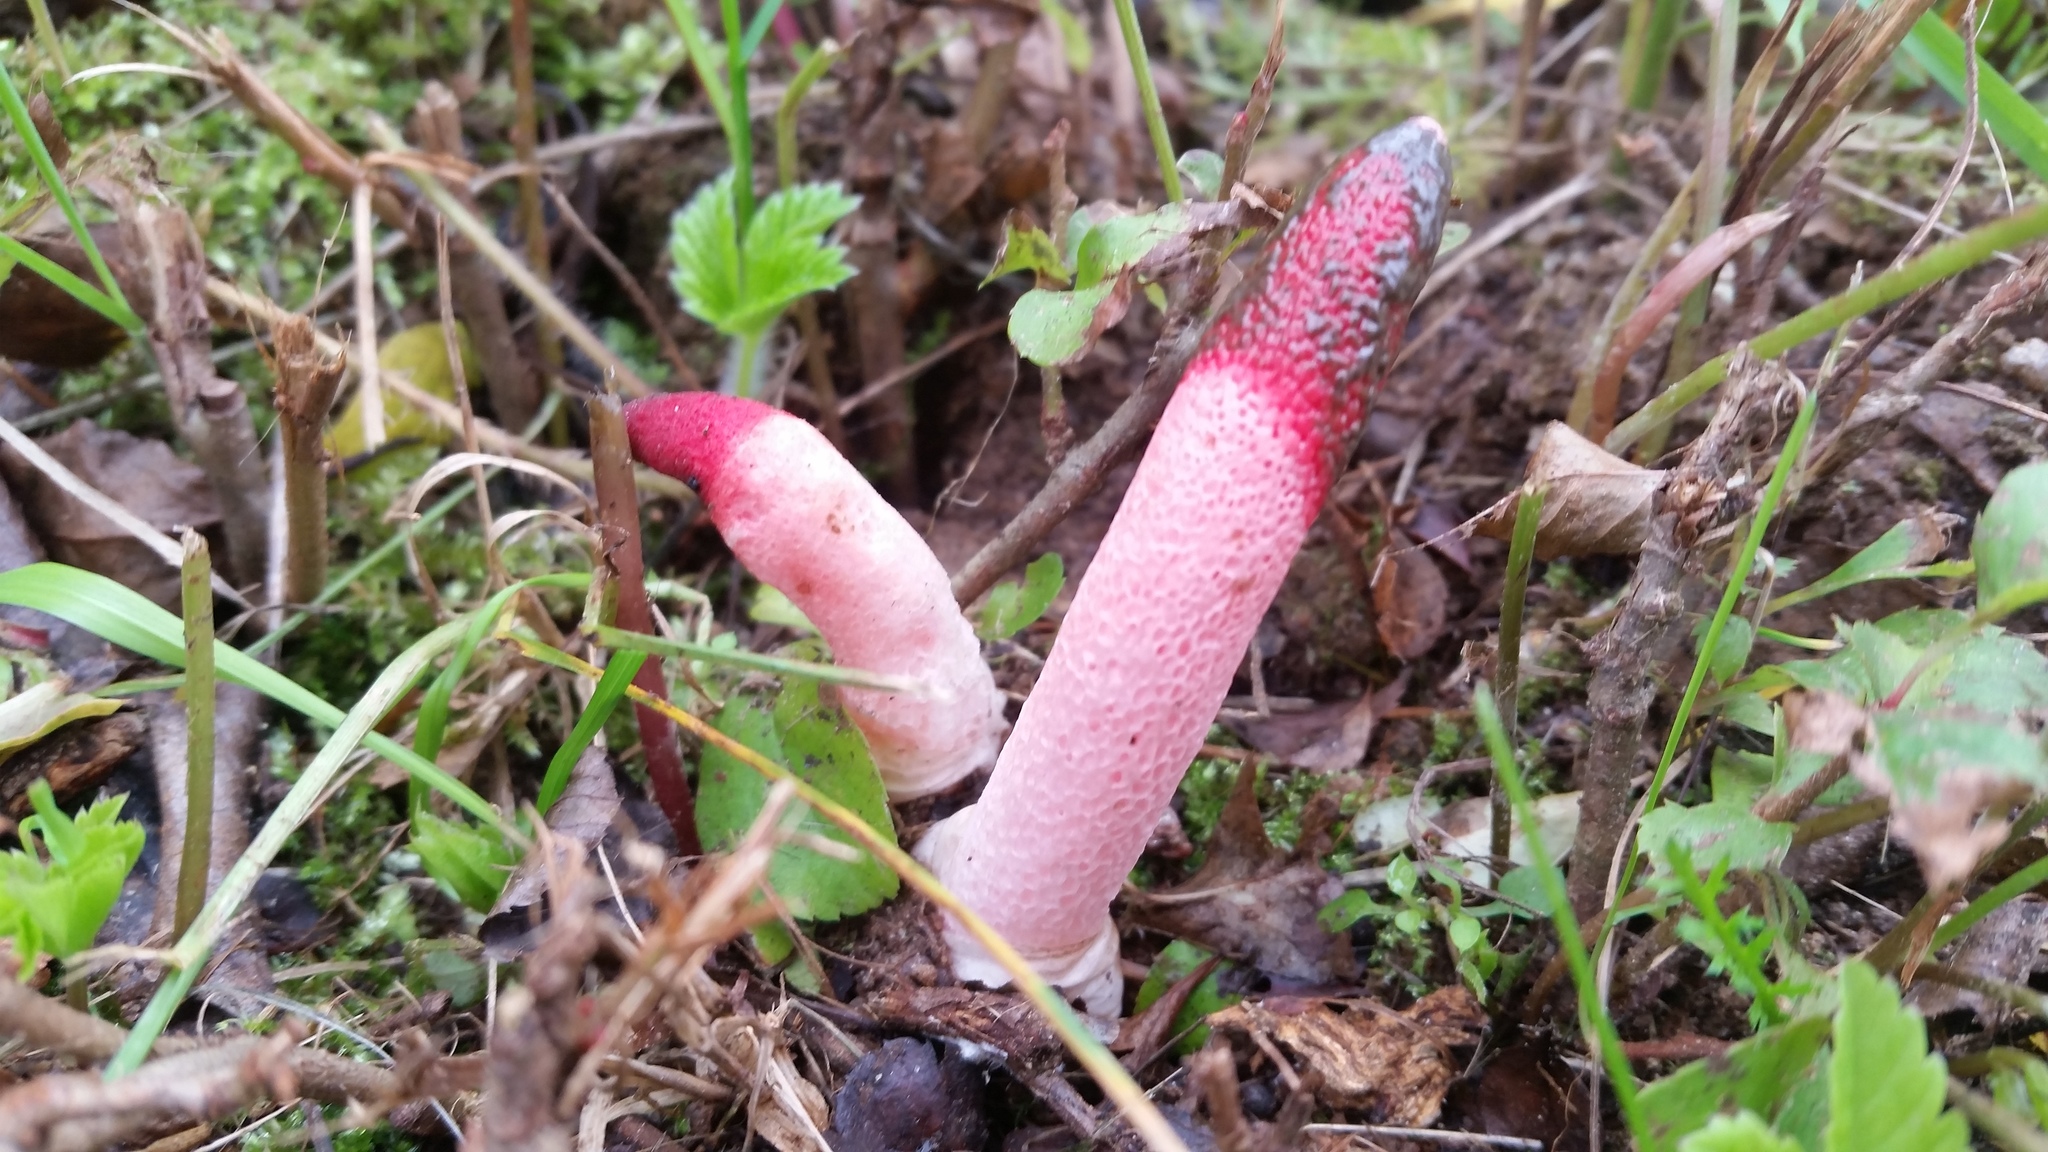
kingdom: Fungi
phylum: Basidiomycota
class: Agaricomycetes
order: Phallales
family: Phallaceae
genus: Mutinus
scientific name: Mutinus ravenelii
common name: Red stinkhorn
